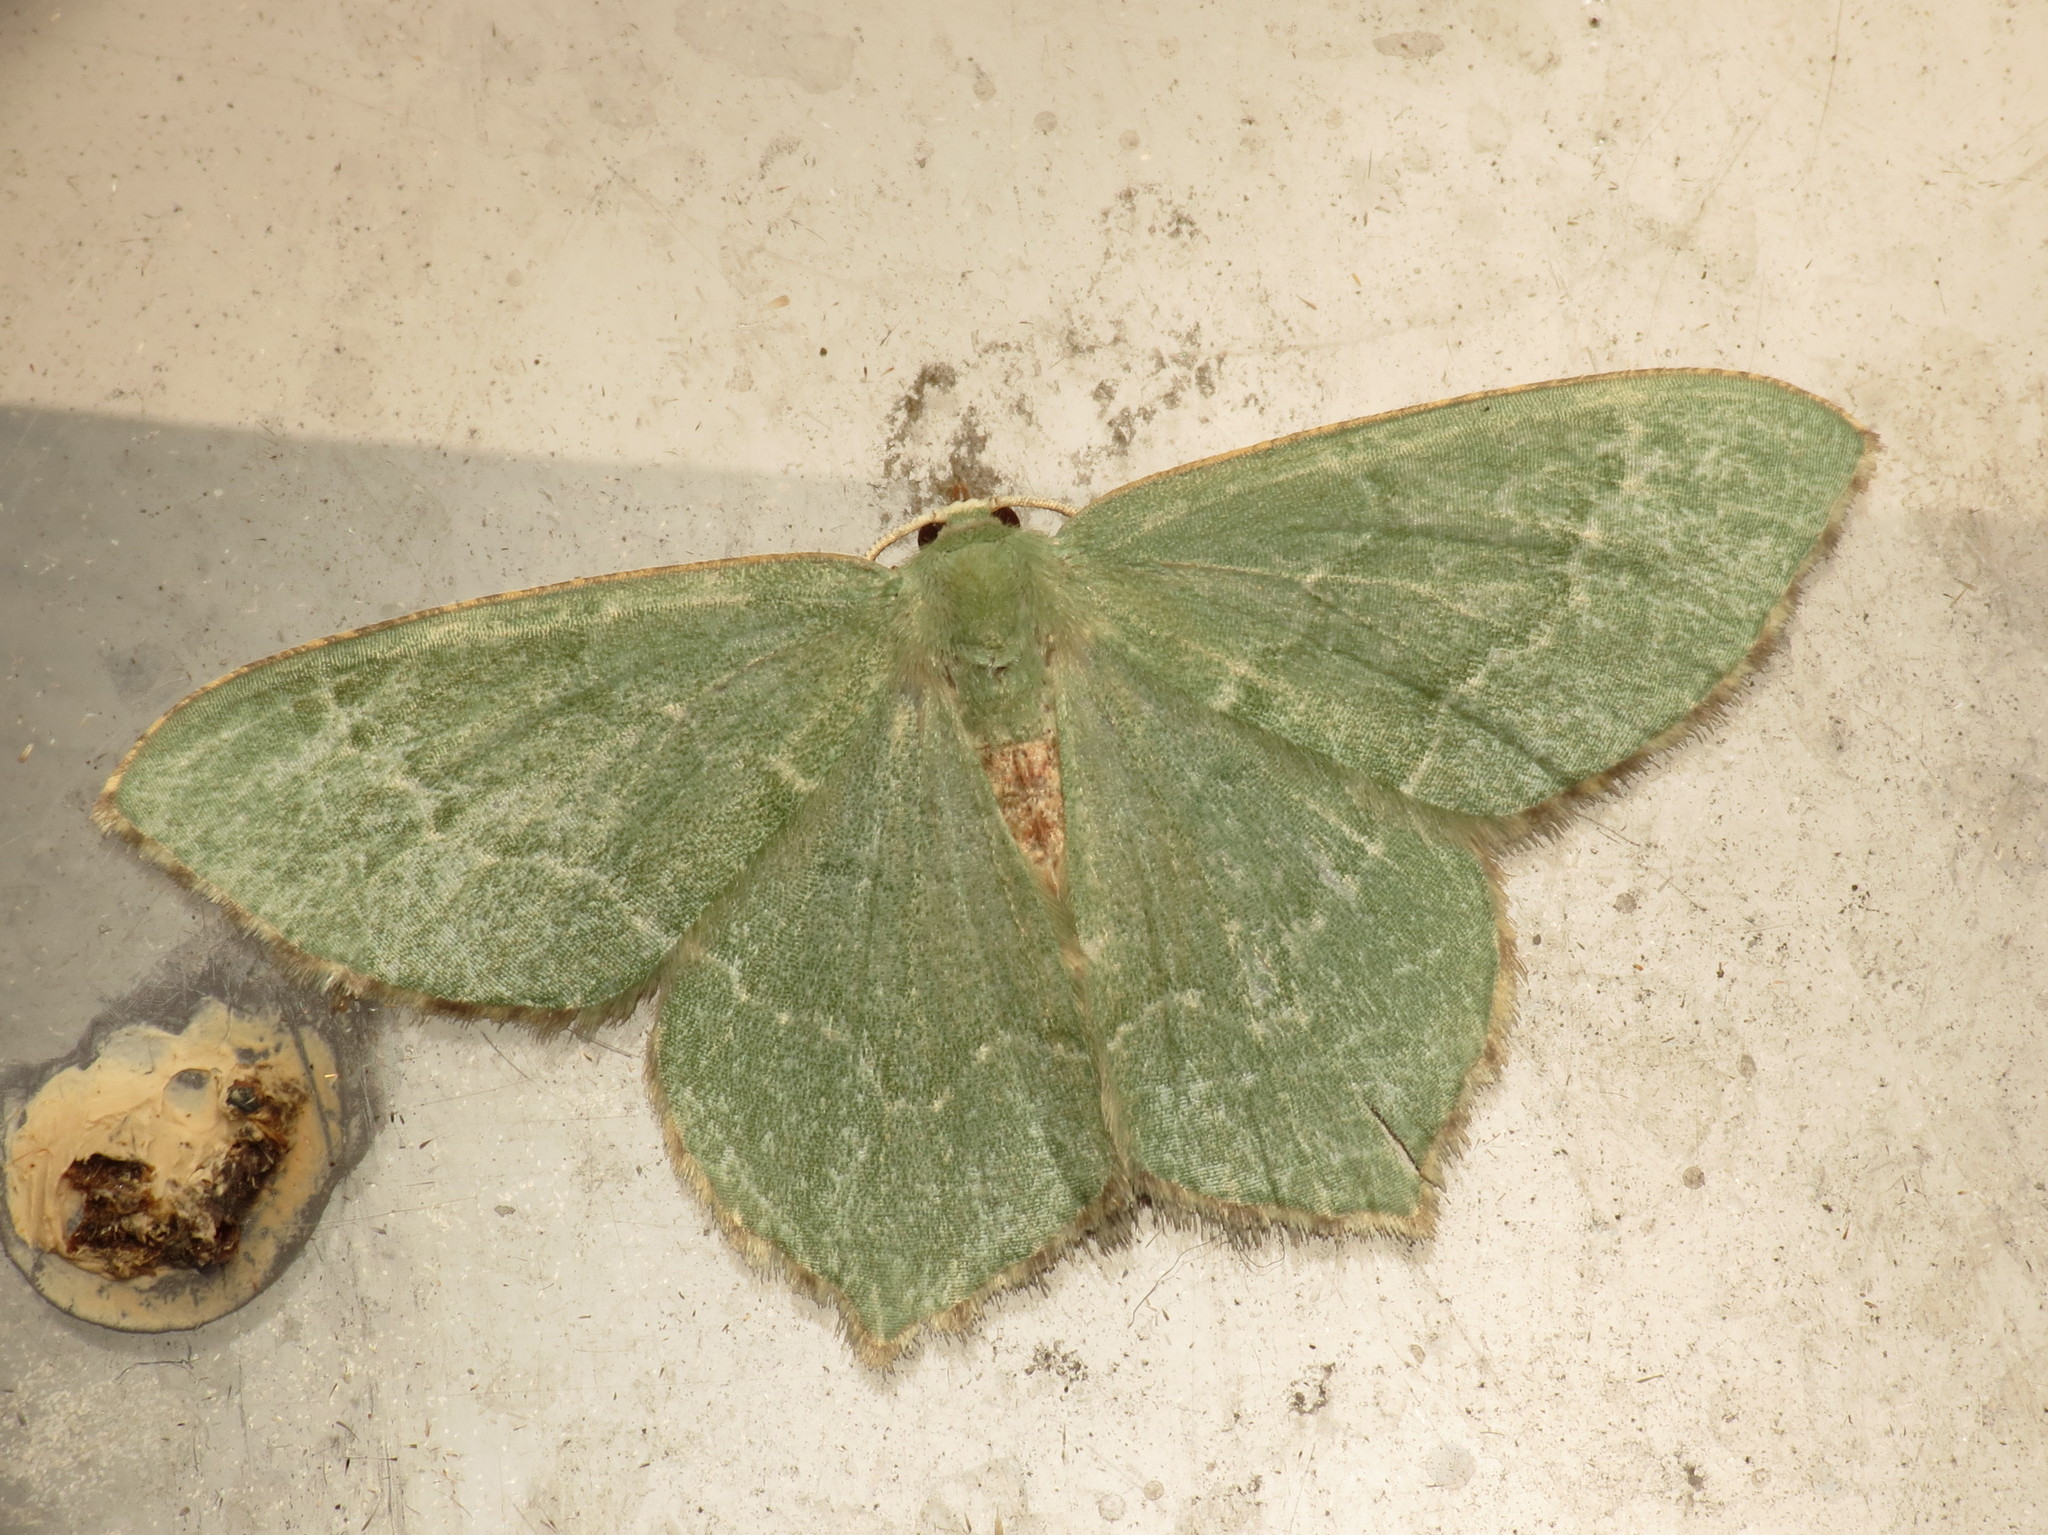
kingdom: Animalia
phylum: Arthropoda
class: Insecta
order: Lepidoptera
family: Geometridae
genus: Hemithea
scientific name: Hemithea aestivaria
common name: Common emerald
